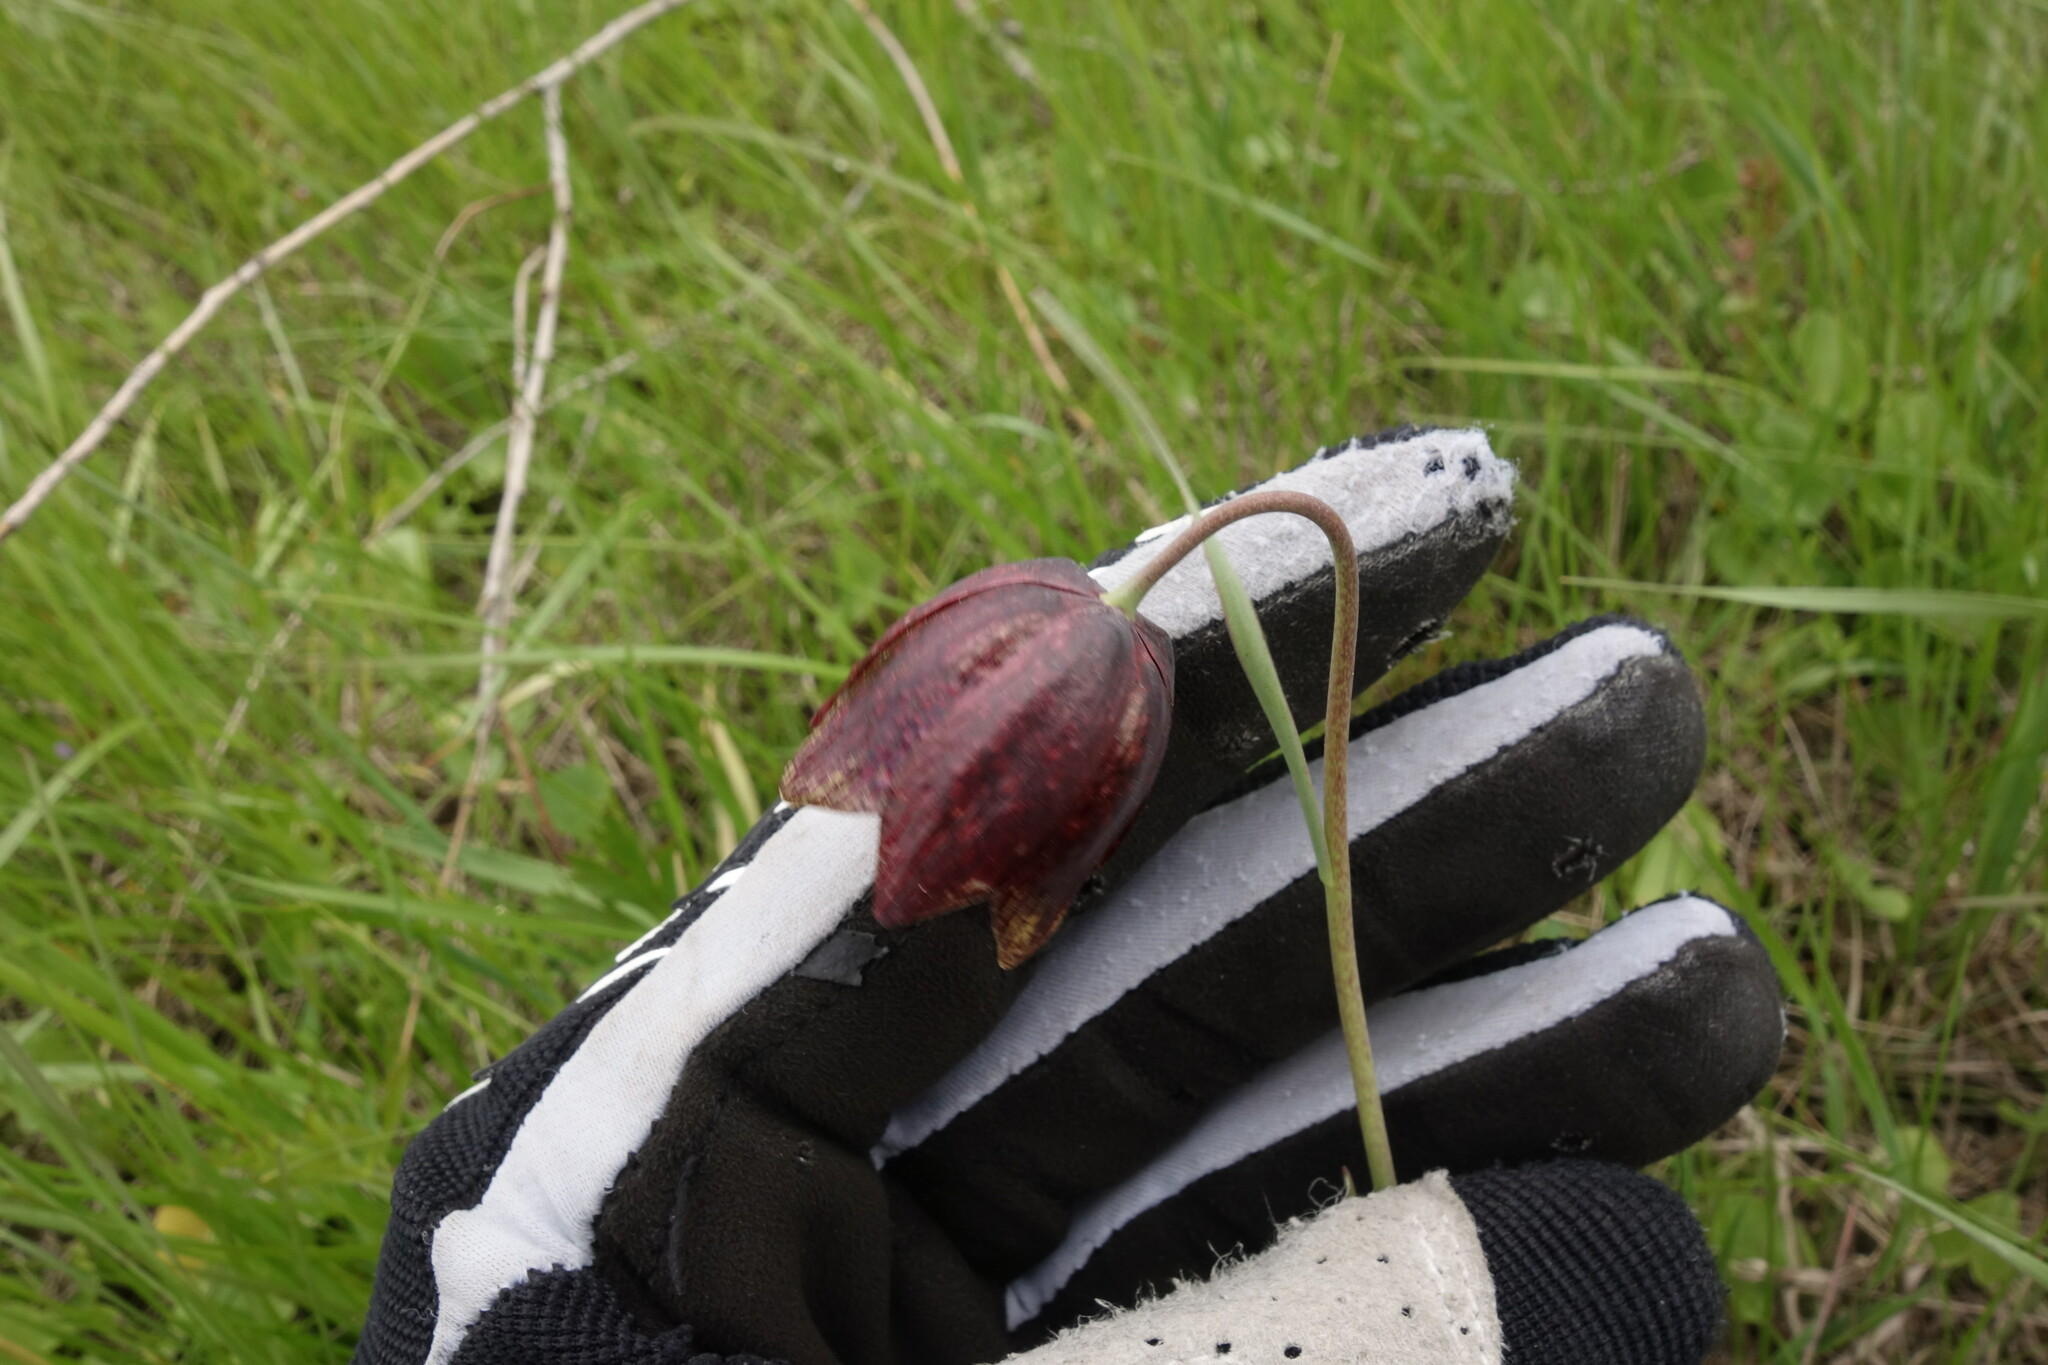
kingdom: Plantae
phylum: Tracheophyta
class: Liliopsida
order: Liliales
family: Liliaceae
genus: Fritillaria
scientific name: Fritillaria meleagroides
